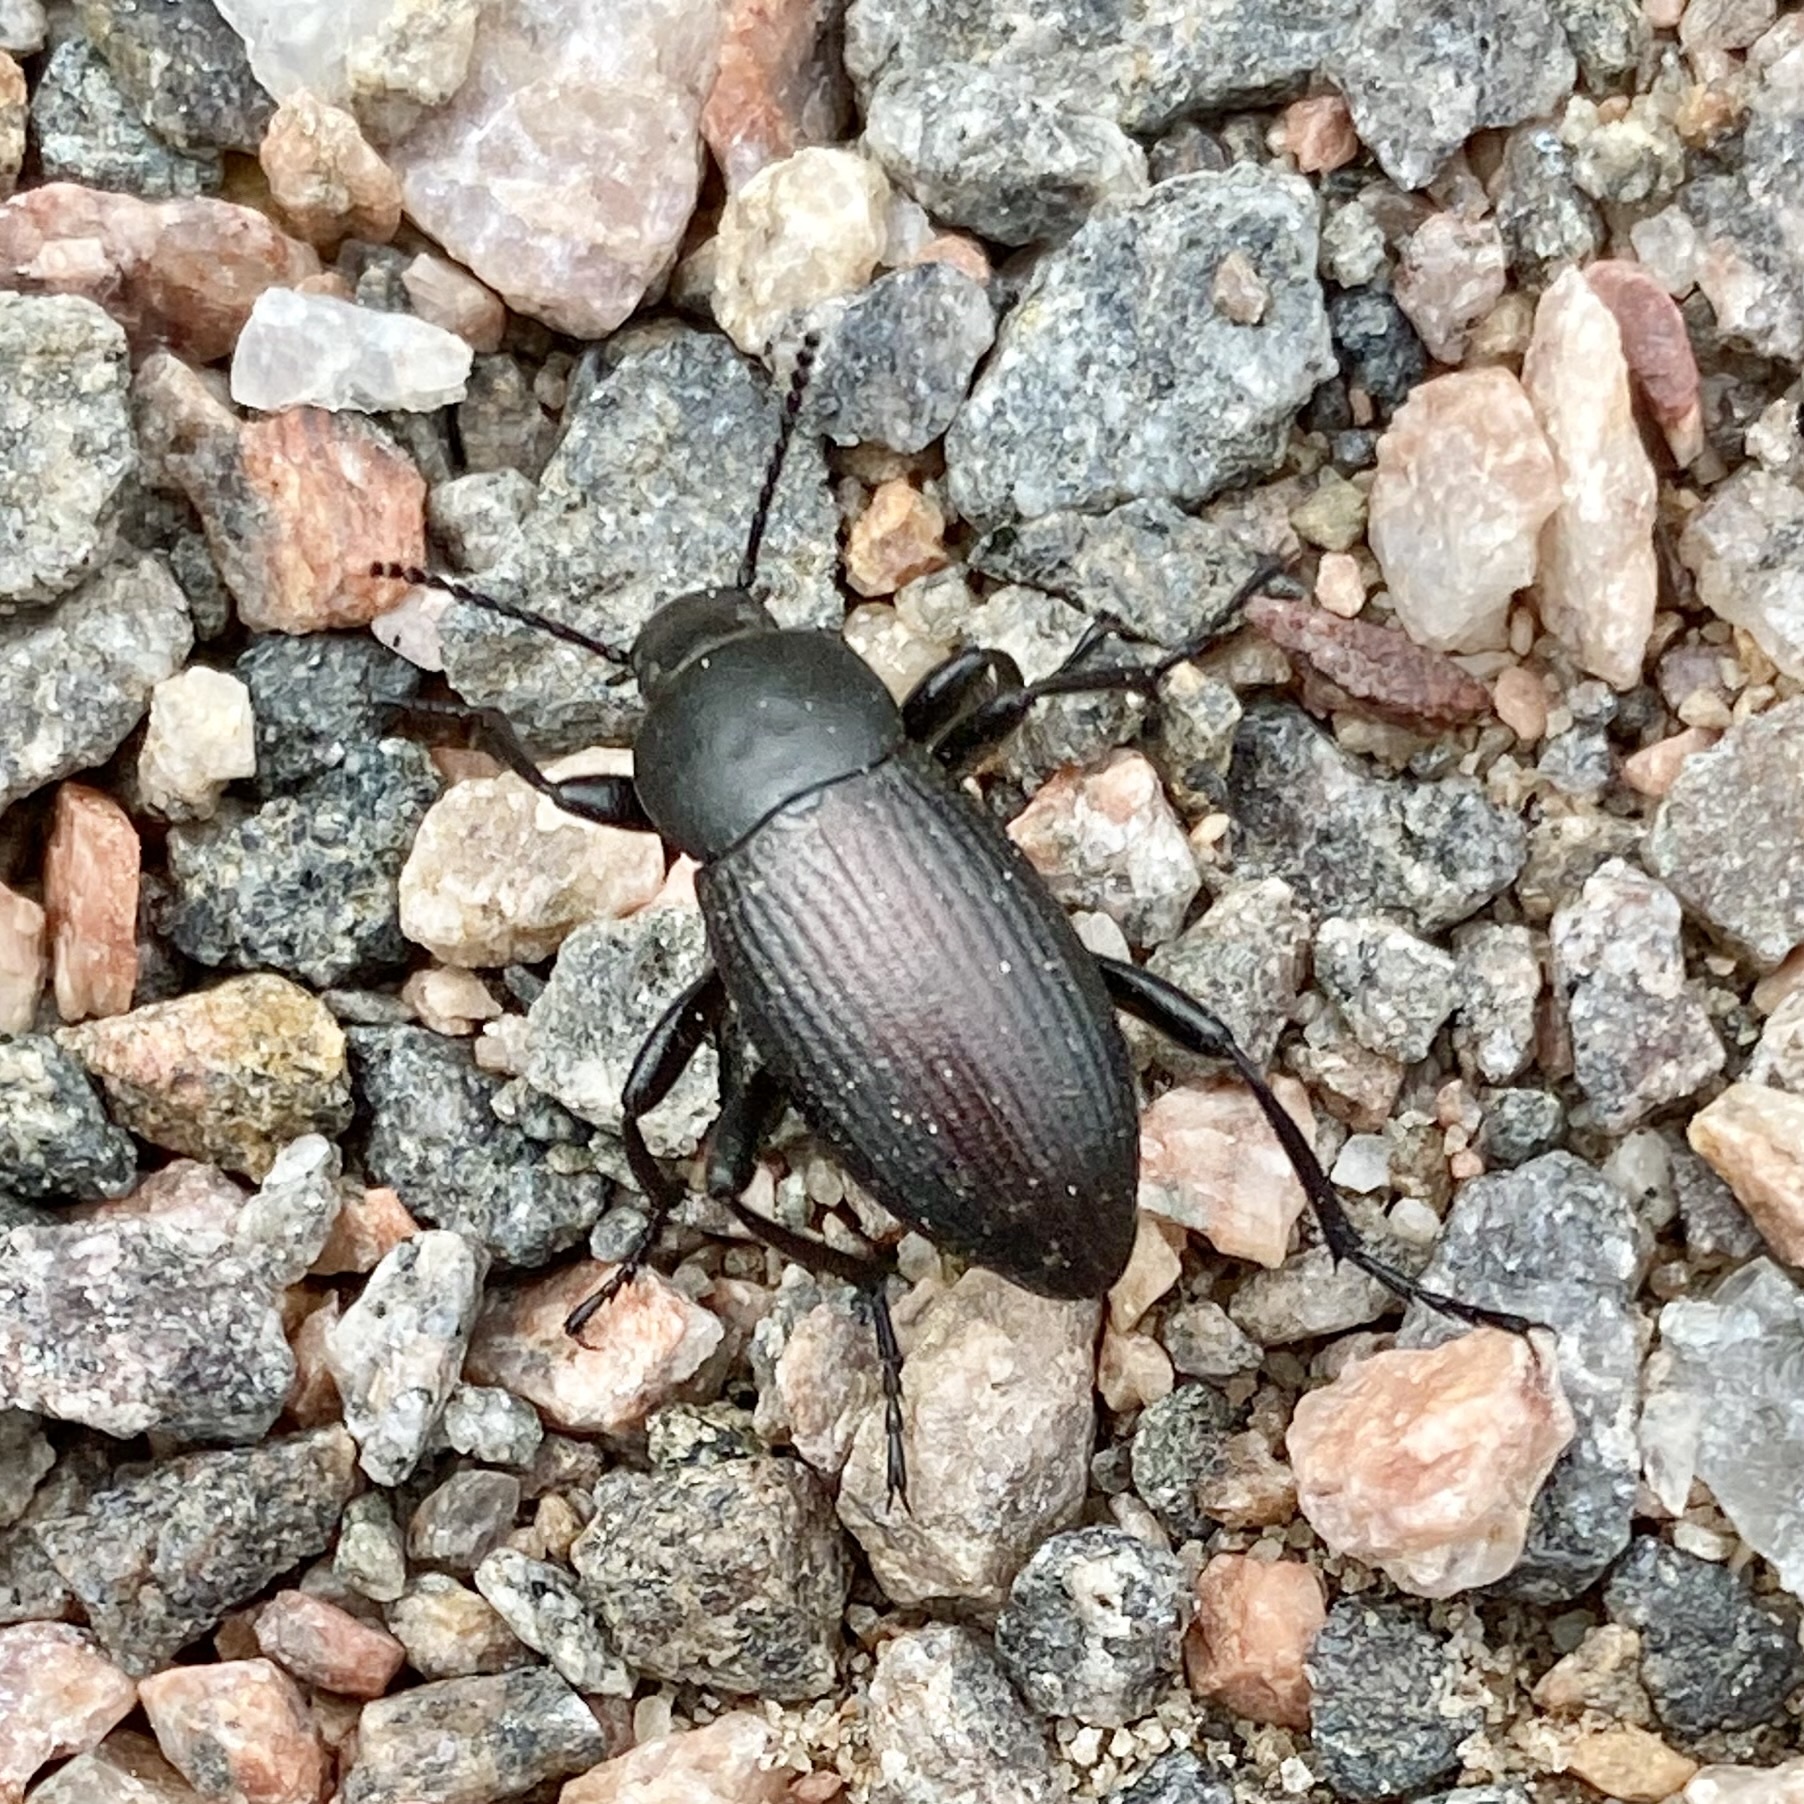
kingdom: Animalia
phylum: Arthropoda
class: Insecta
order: Coleoptera
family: Tenebrionidae
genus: Eleodes
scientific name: Eleodes carbonaria
